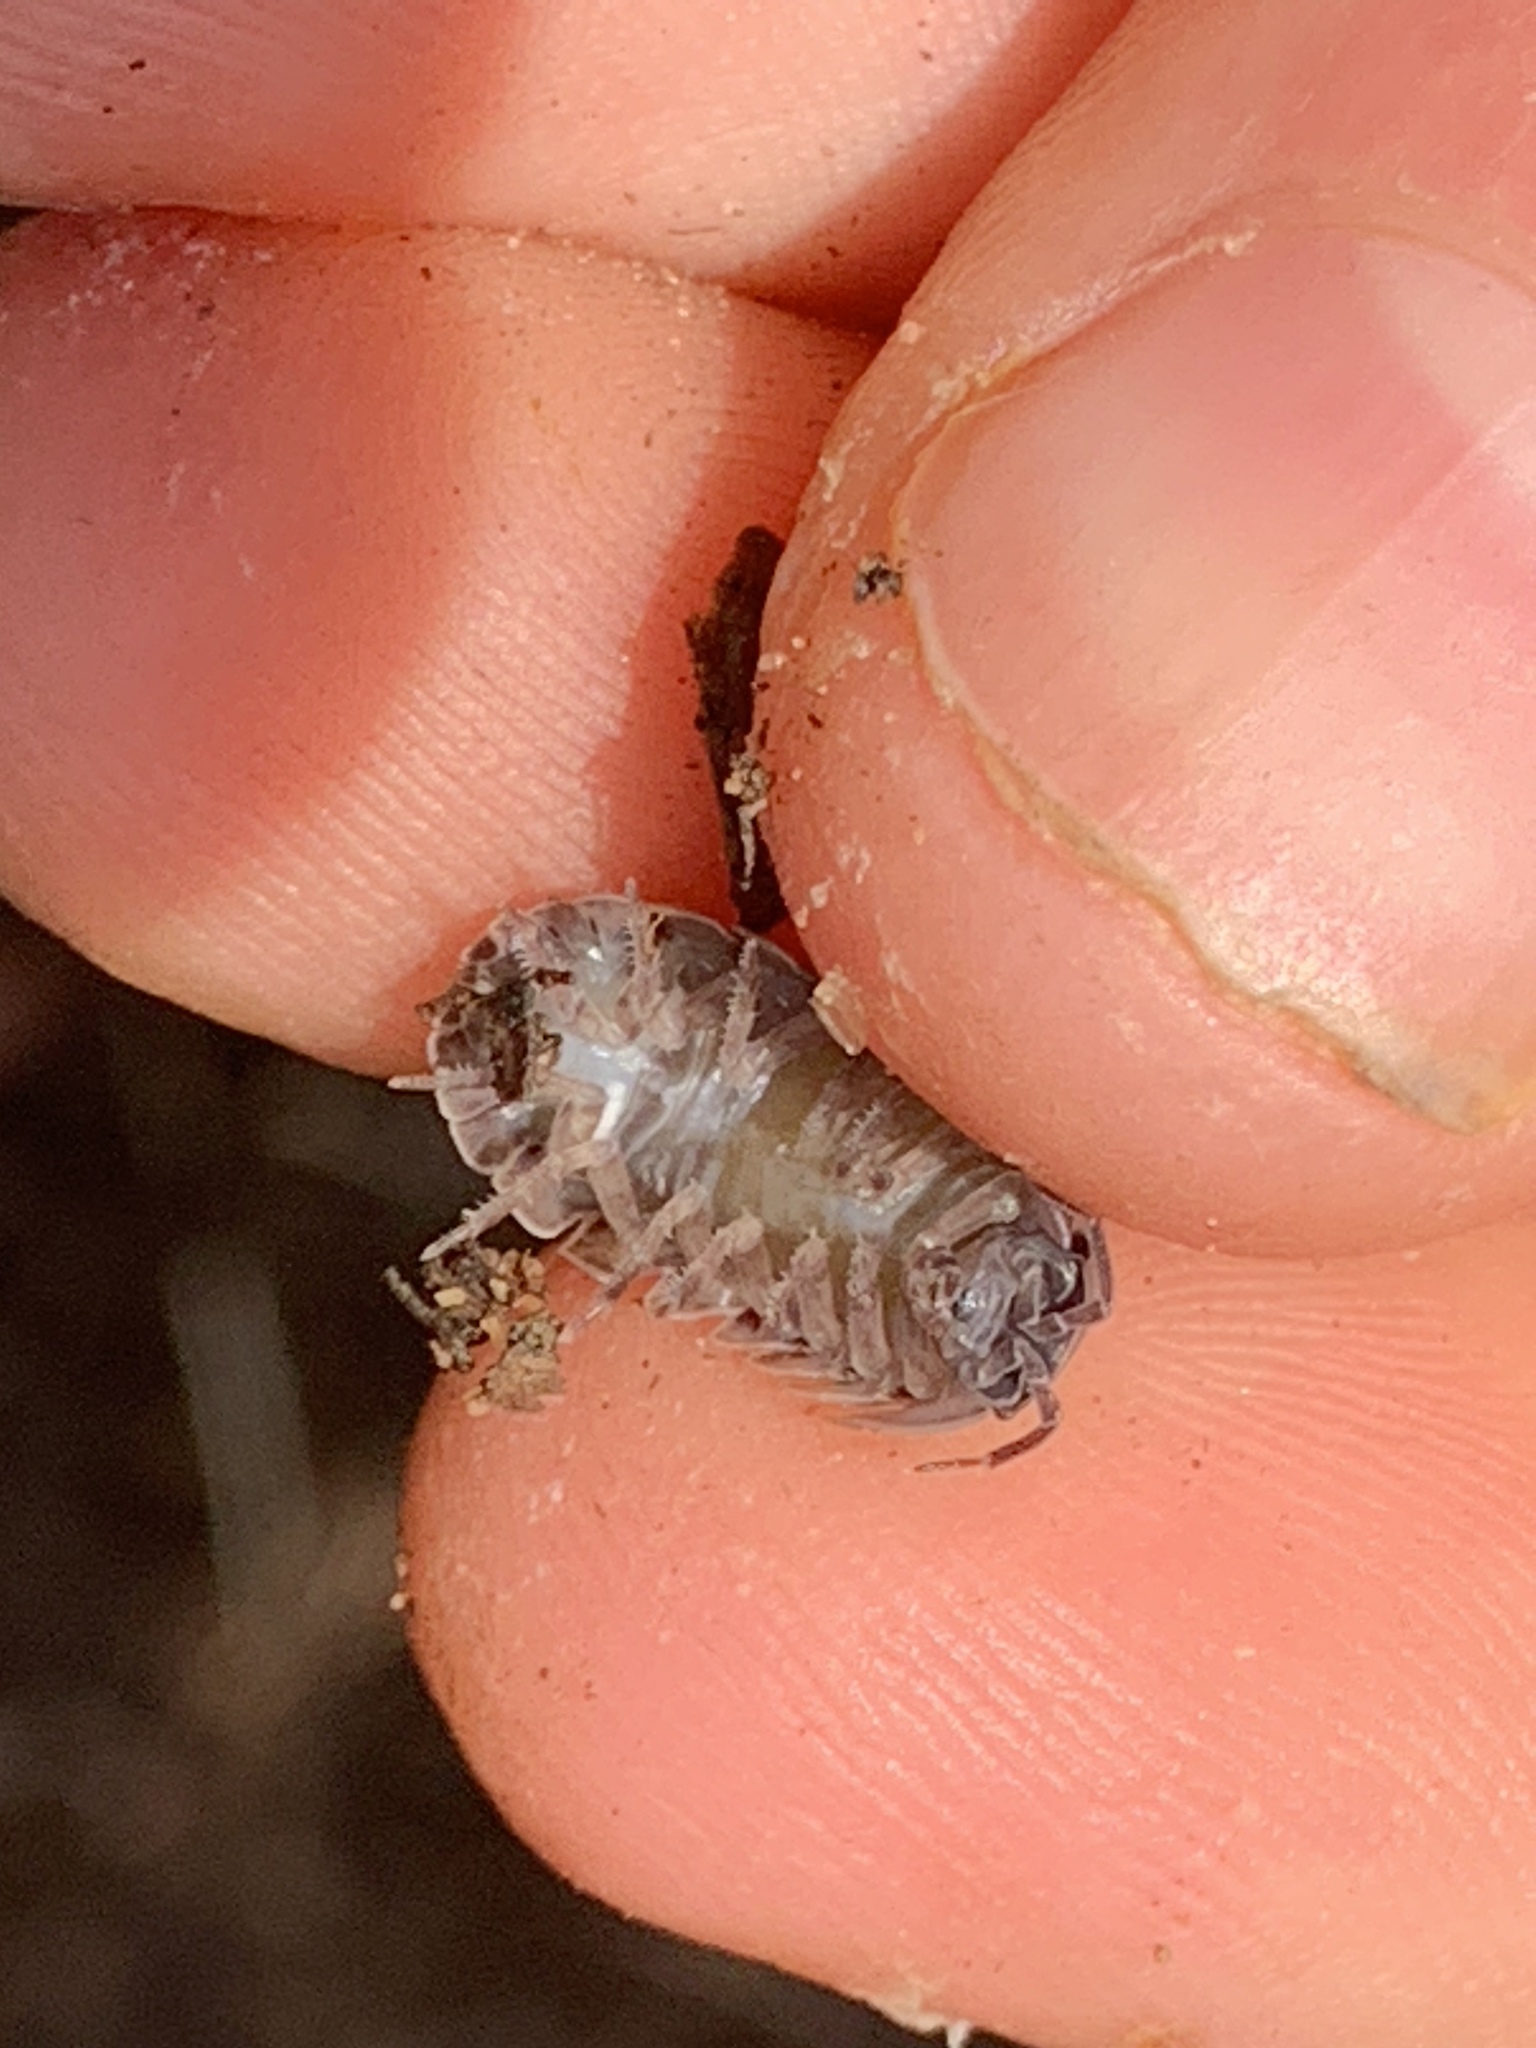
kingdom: Animalia
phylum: Arthropoda
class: Malacostraca
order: Isopoda
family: Armadillidiidae
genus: Armadillidium
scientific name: Armadillidium vulgare
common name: Common pill woodlouse
